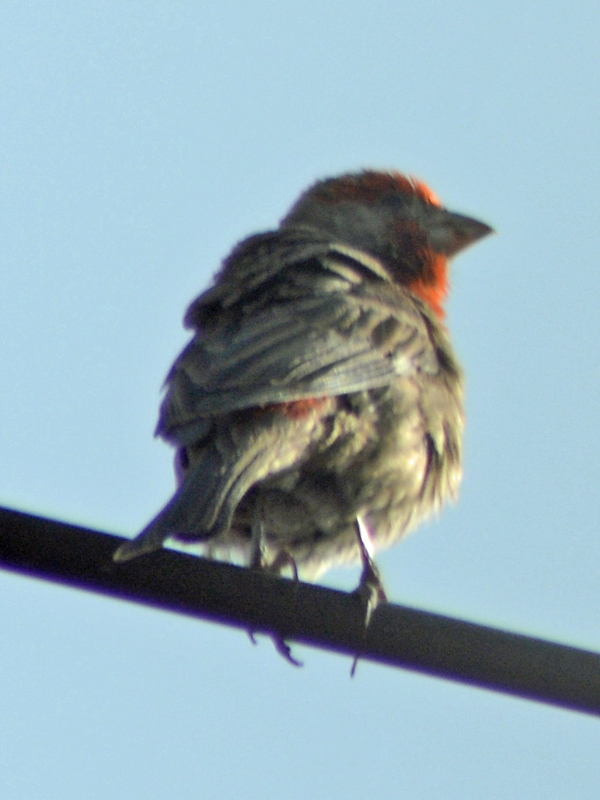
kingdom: Animalia
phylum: Chordata
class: Aves
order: Passeriformes
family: Fringillidae
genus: Haemorhous
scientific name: Haemorhous mexicanus
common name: House finch
